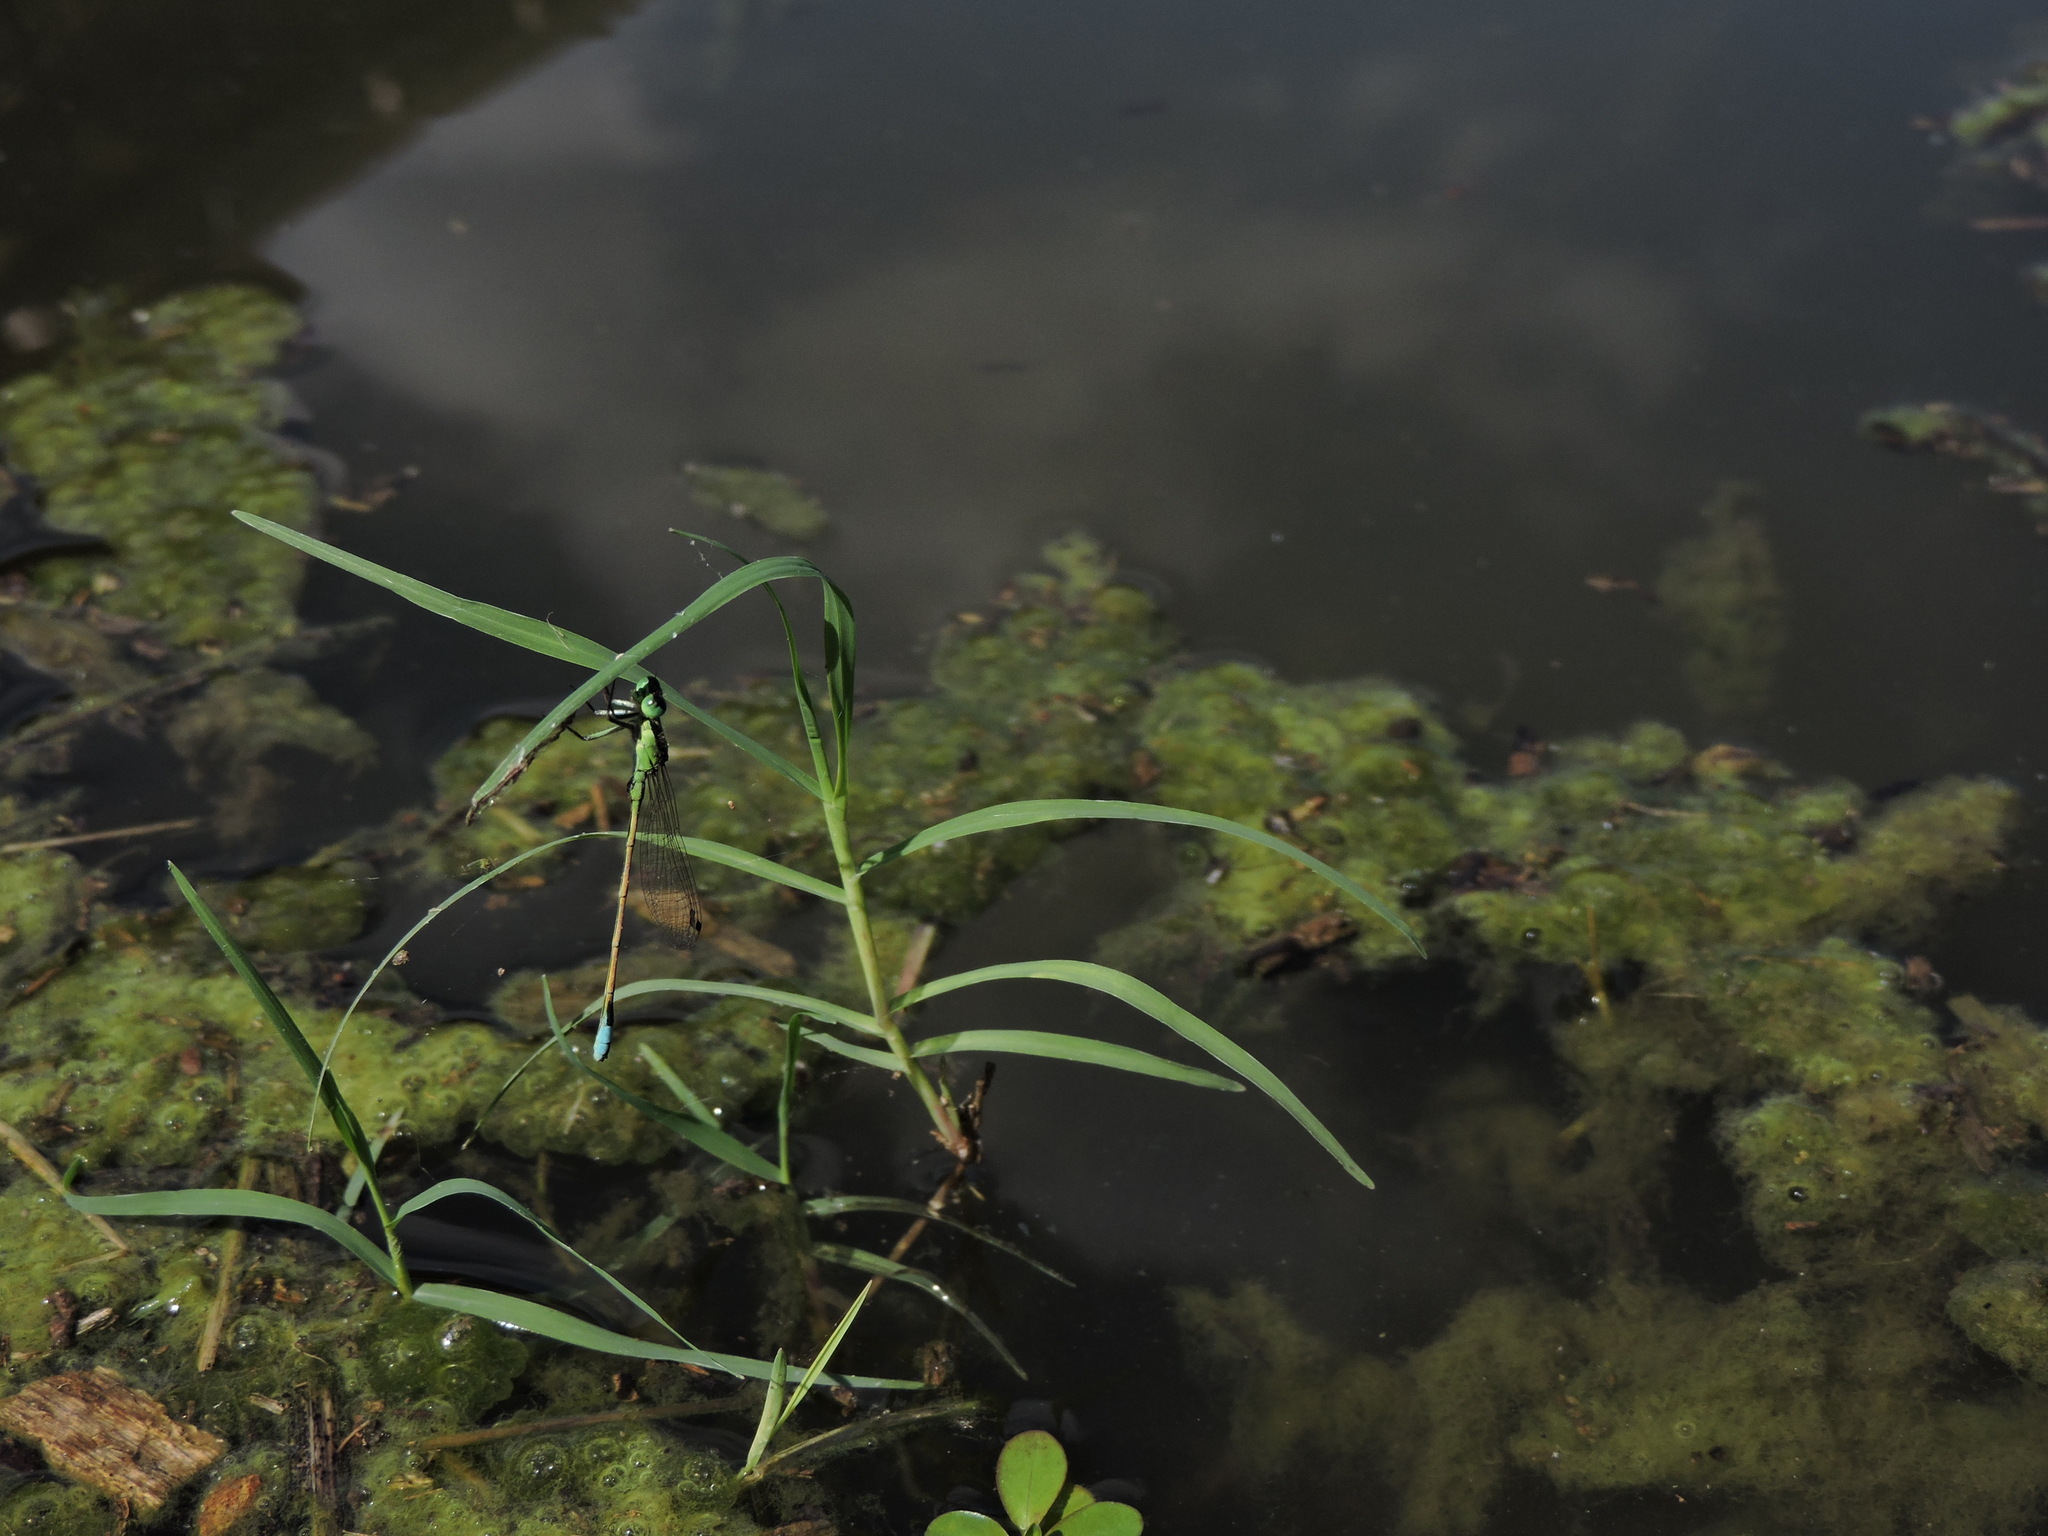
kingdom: Animalia
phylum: Arthropoda
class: Insecta
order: Odonata
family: Coenagrionidae
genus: Ischnura
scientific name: Ischnura ramburii
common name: Rambur's forktail
